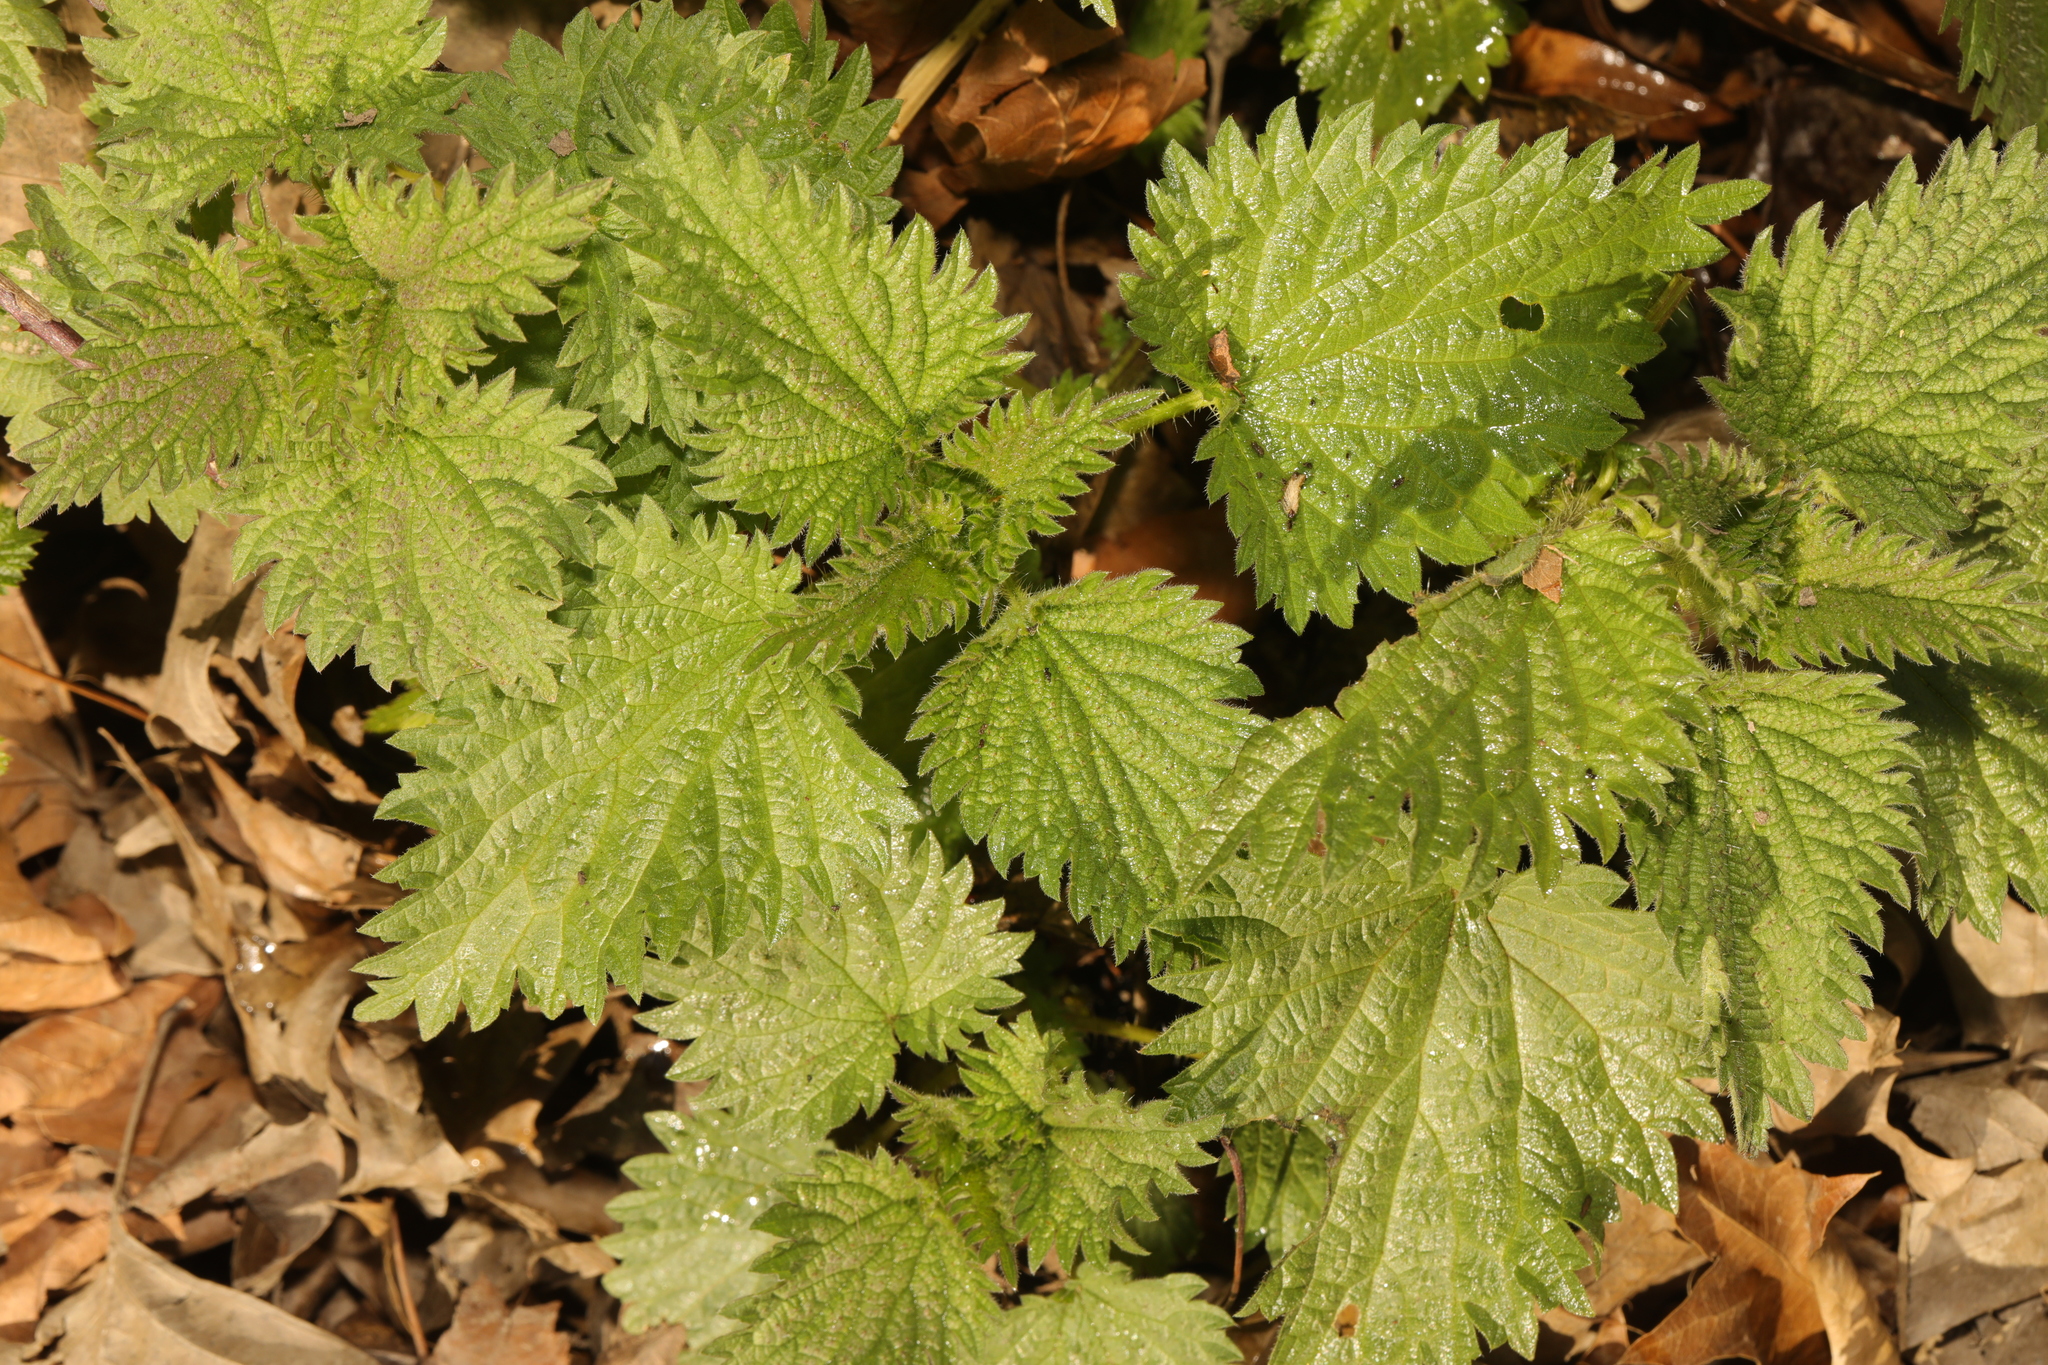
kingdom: Plantae
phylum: Tracheophyta
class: Magnoliopsida
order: Rosales
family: Urticaceae
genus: Urtica
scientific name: Urtica dioica
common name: Common nettle
